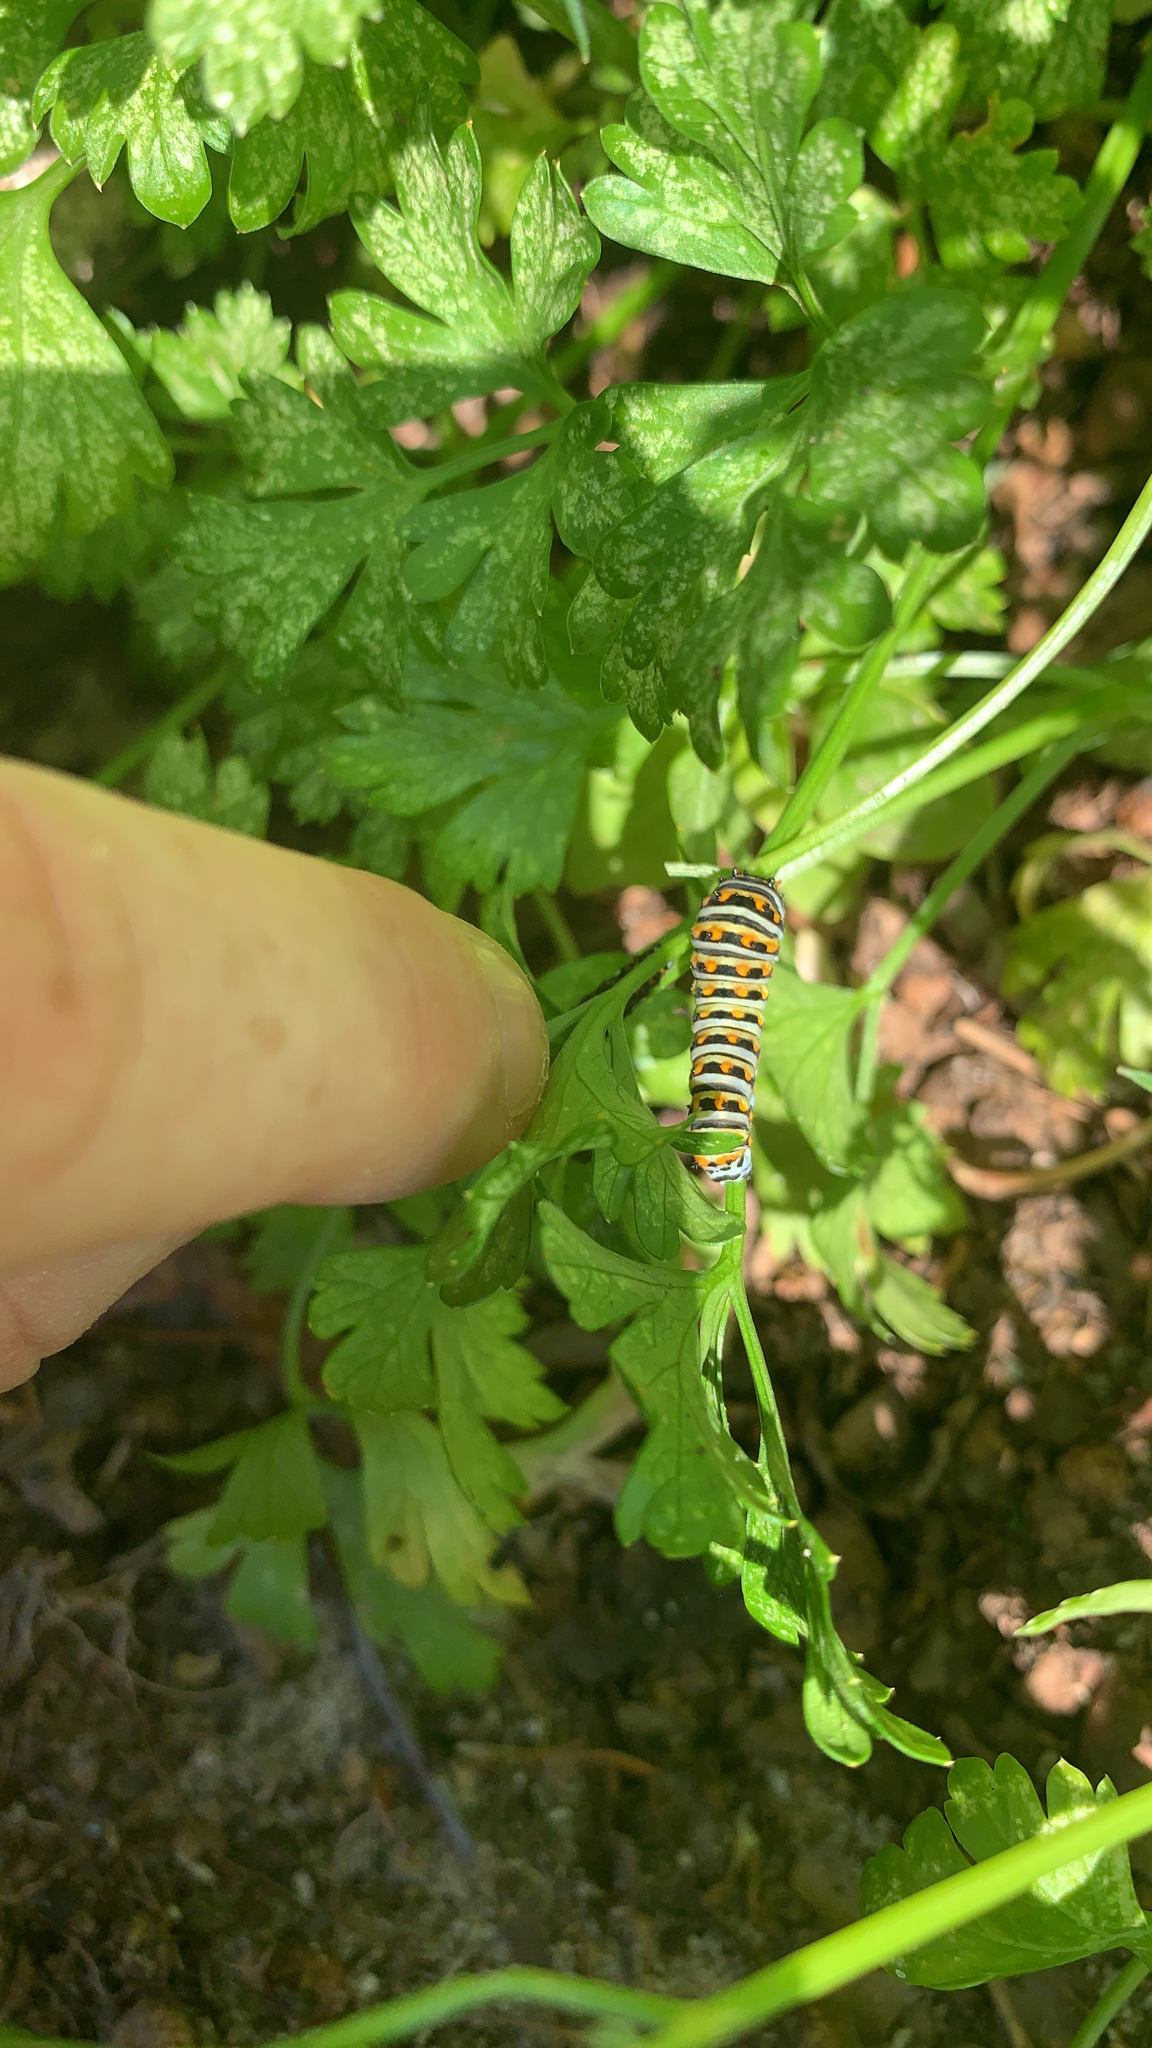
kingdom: Animalia
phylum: Arthropoda
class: Insecta
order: Lepidoptera
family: Papilionidae
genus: Papilio
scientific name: Papilio polyxenes
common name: Black swallowtail
